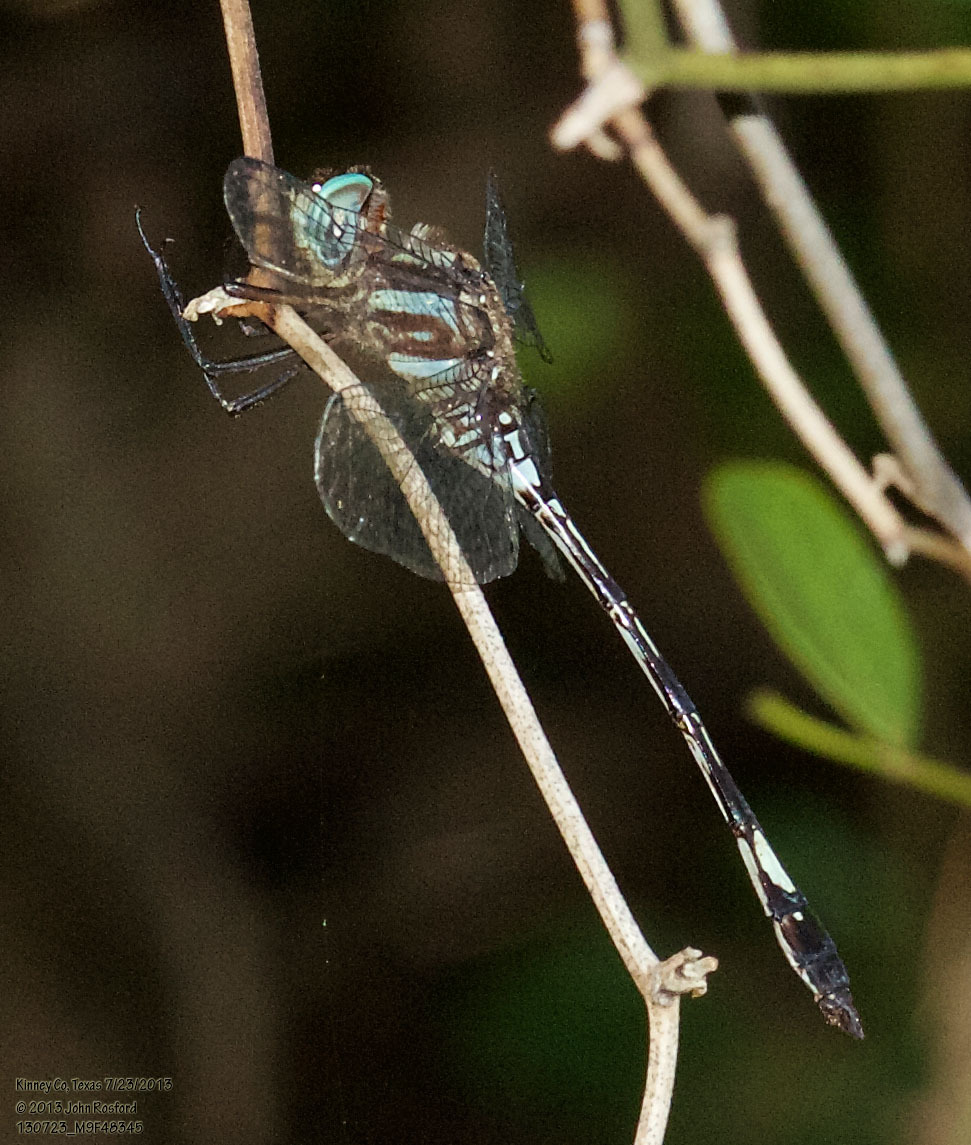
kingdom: Animalia
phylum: Arthropoda
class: Insecta
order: Odonata
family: Libellulidae
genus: Brechmorhoga
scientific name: Brechmorhoga mendax
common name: Pale-faced clubskimmer
